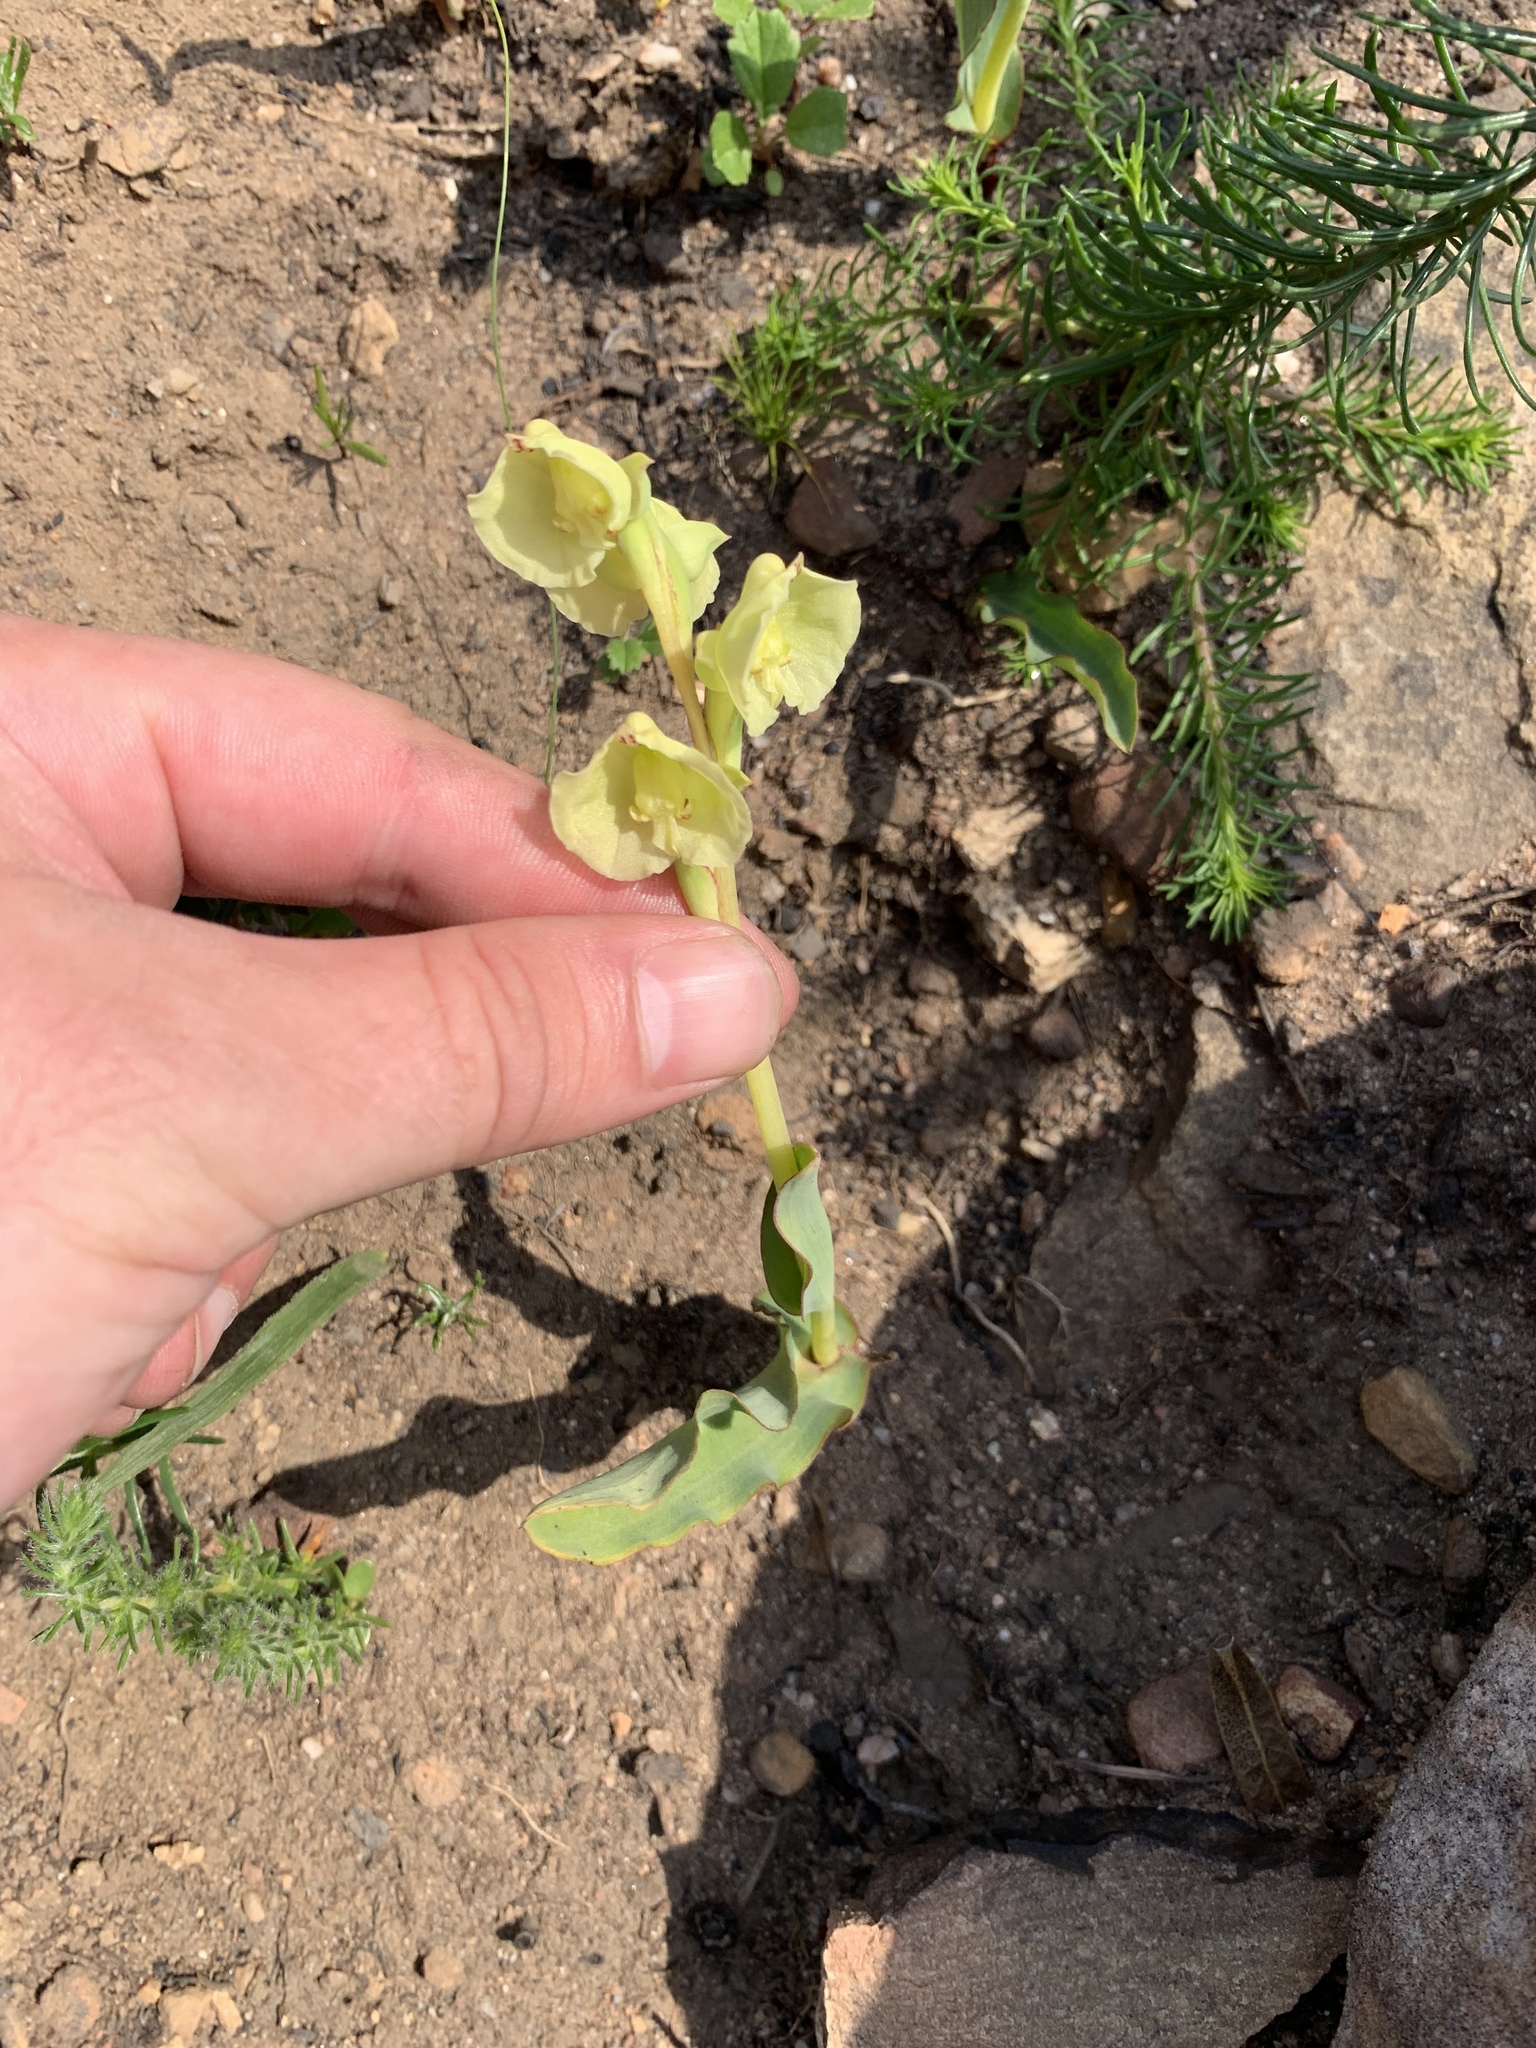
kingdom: Plantae
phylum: Tracheophyta
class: Liliopsida
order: Asparagales
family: Orchidaceae
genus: Pterygodium
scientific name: Pterygodium catholicum
